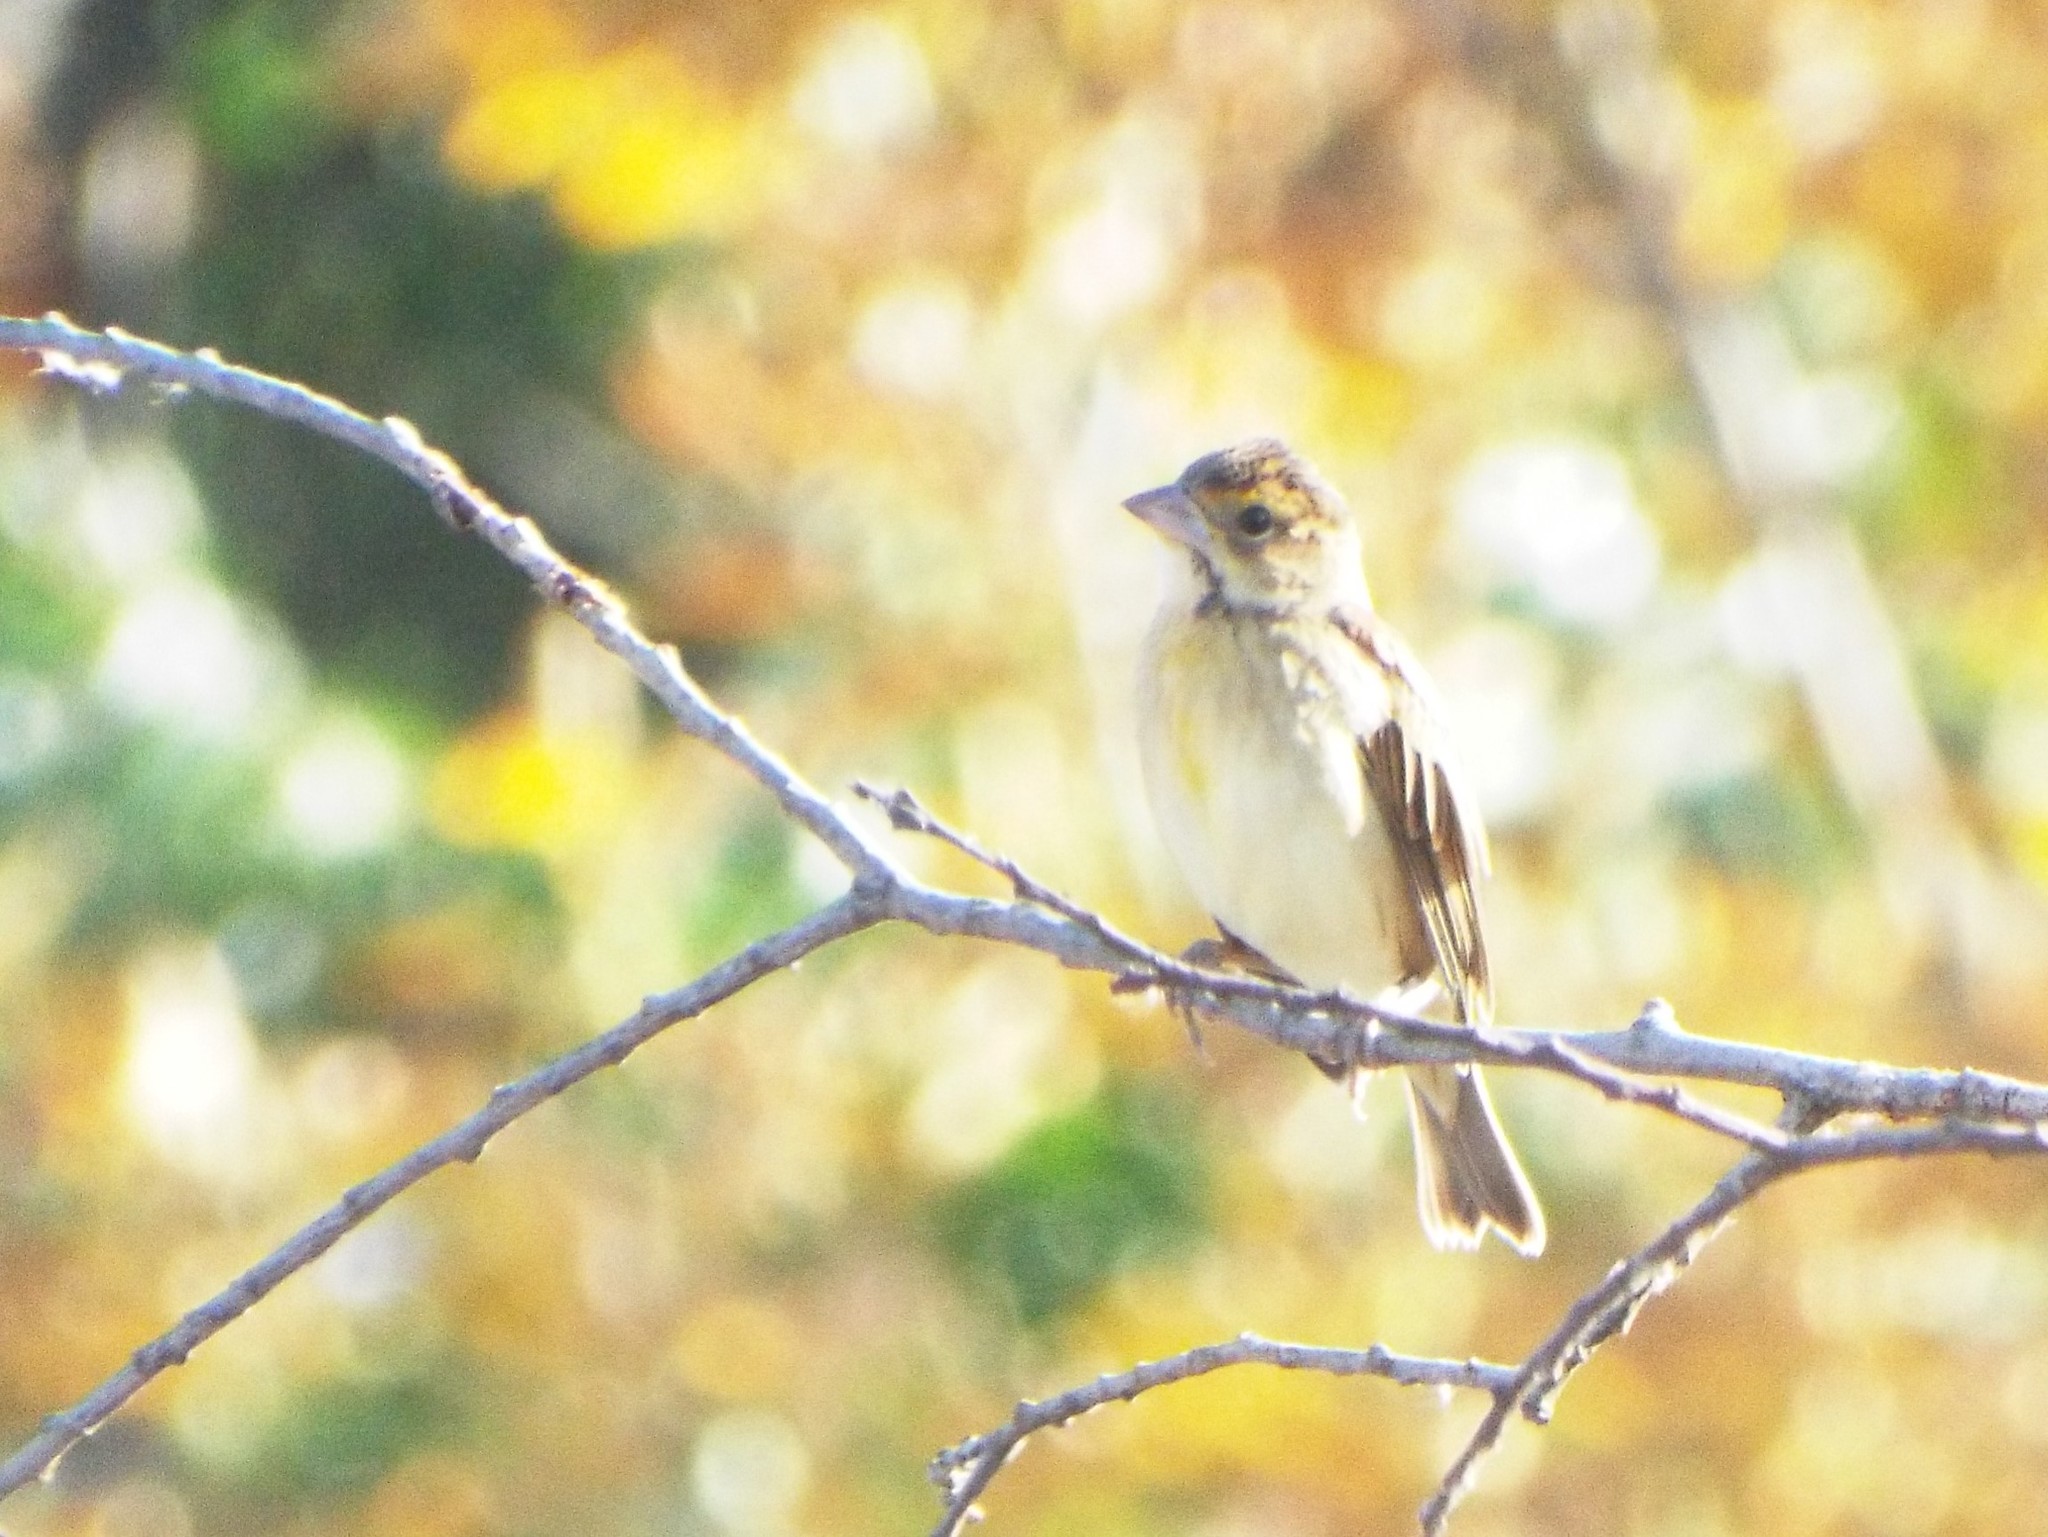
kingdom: Animalia
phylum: Chordata
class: Aves
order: Passeriformes
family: Cardinalidae
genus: Spiza
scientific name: Spiza americana
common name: Dickcissel
